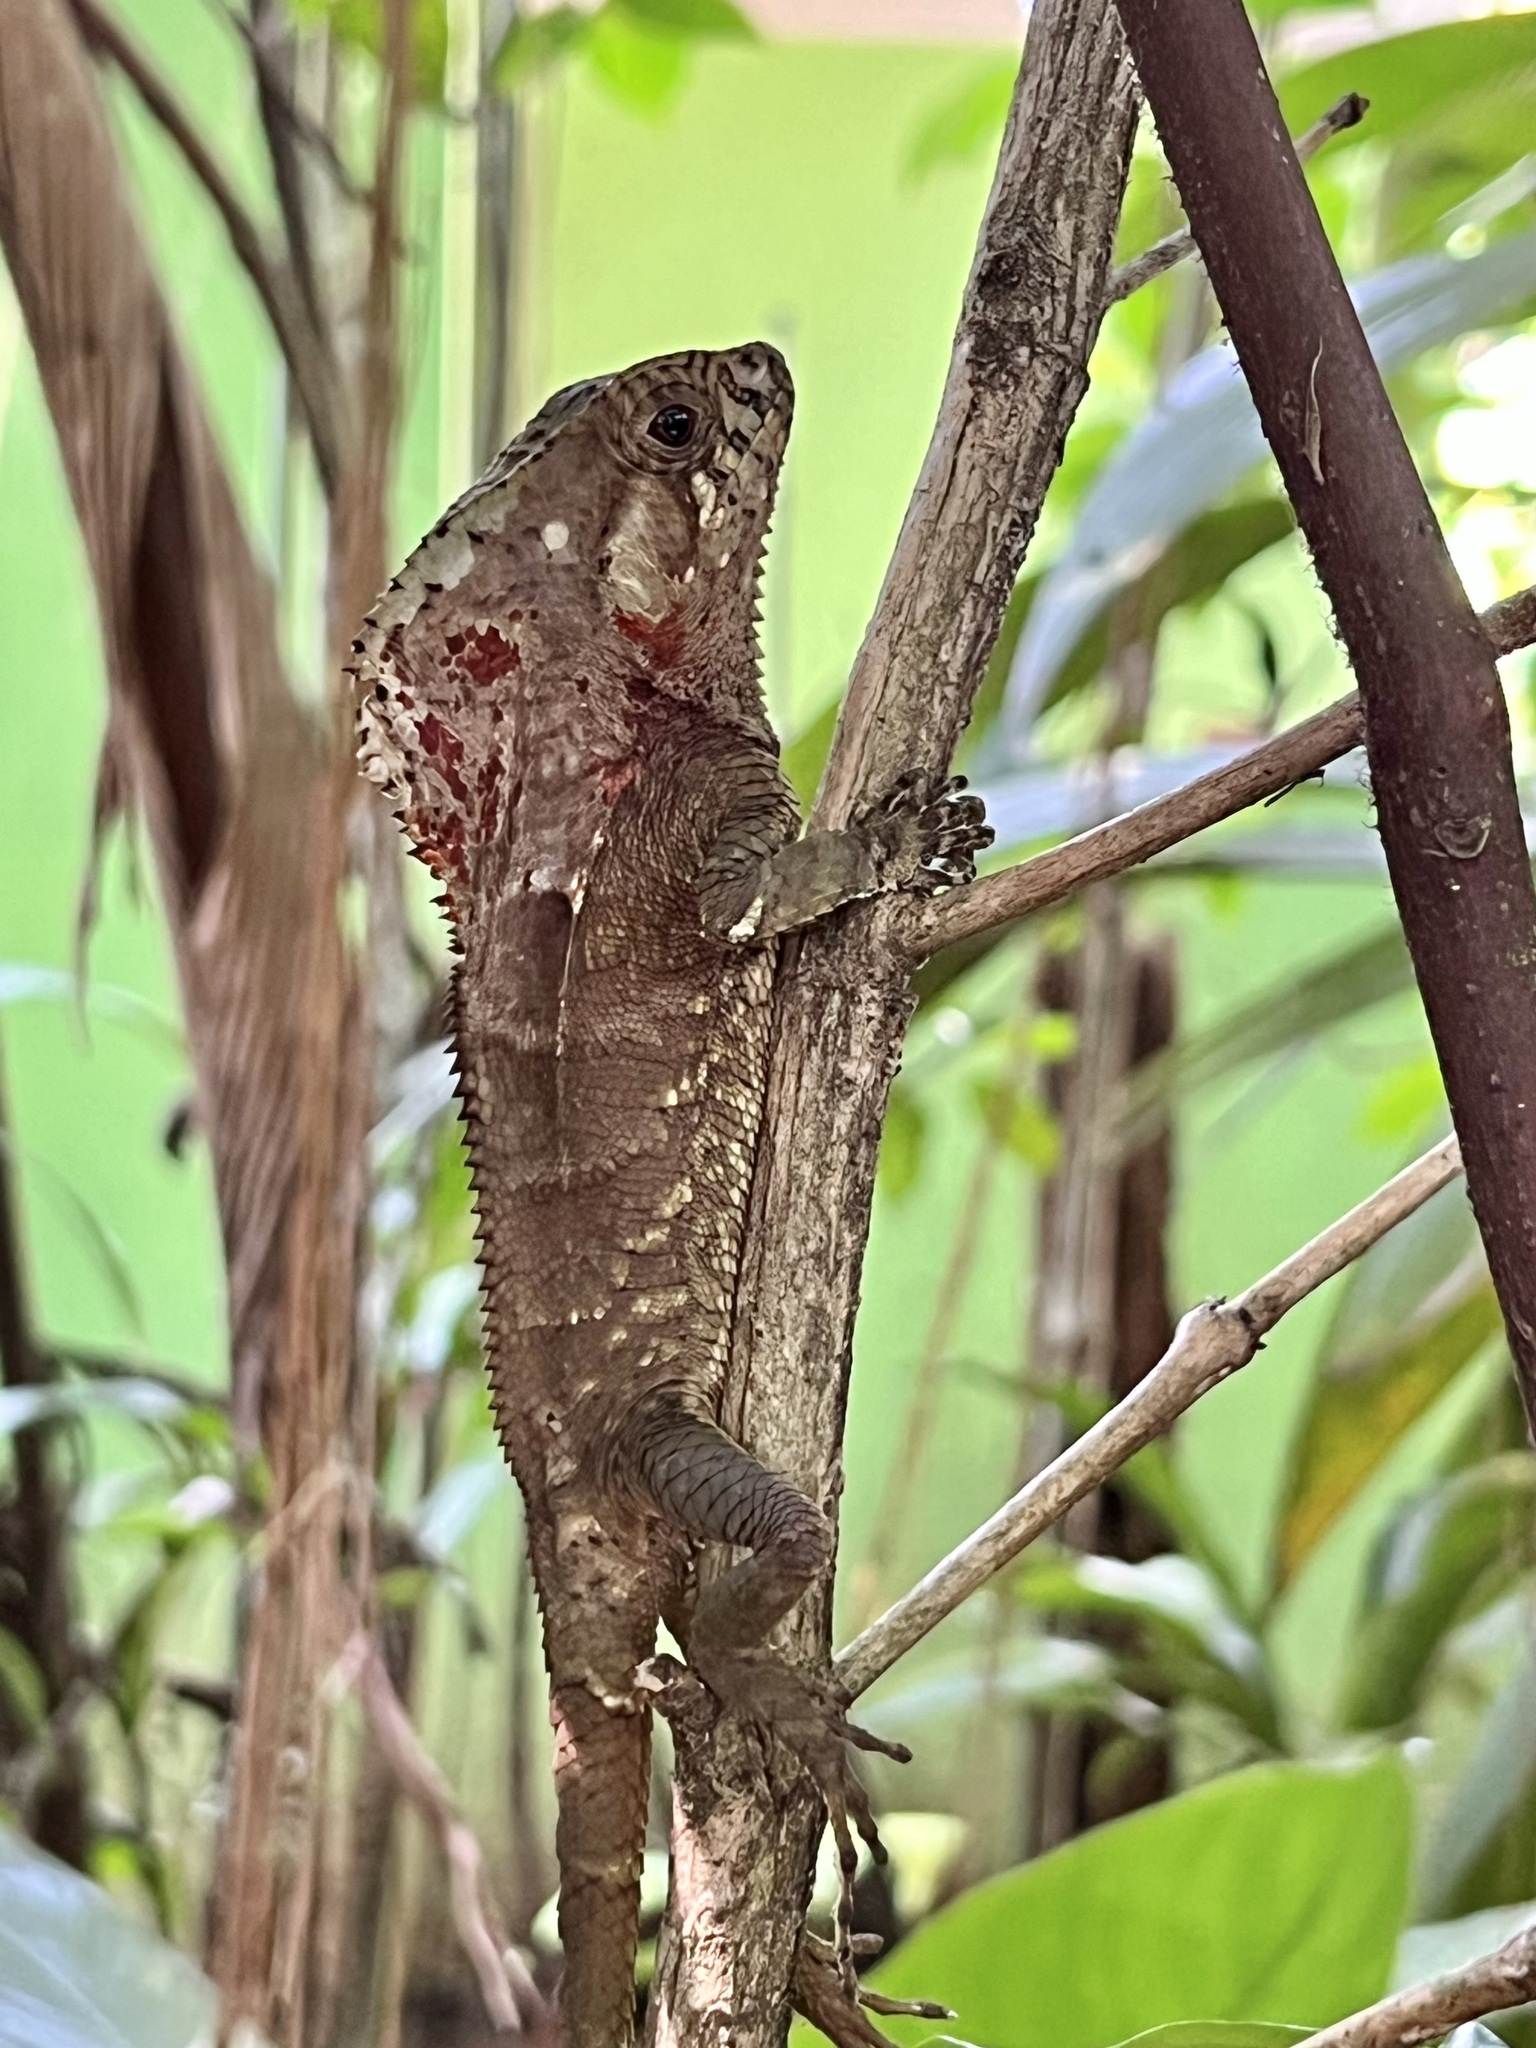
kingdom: Animalia
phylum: Chordata
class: Squamata
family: Corytophanidae
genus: Corytophanes
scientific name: Corytophanes cristatus
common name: Smooth helmeted iguana
